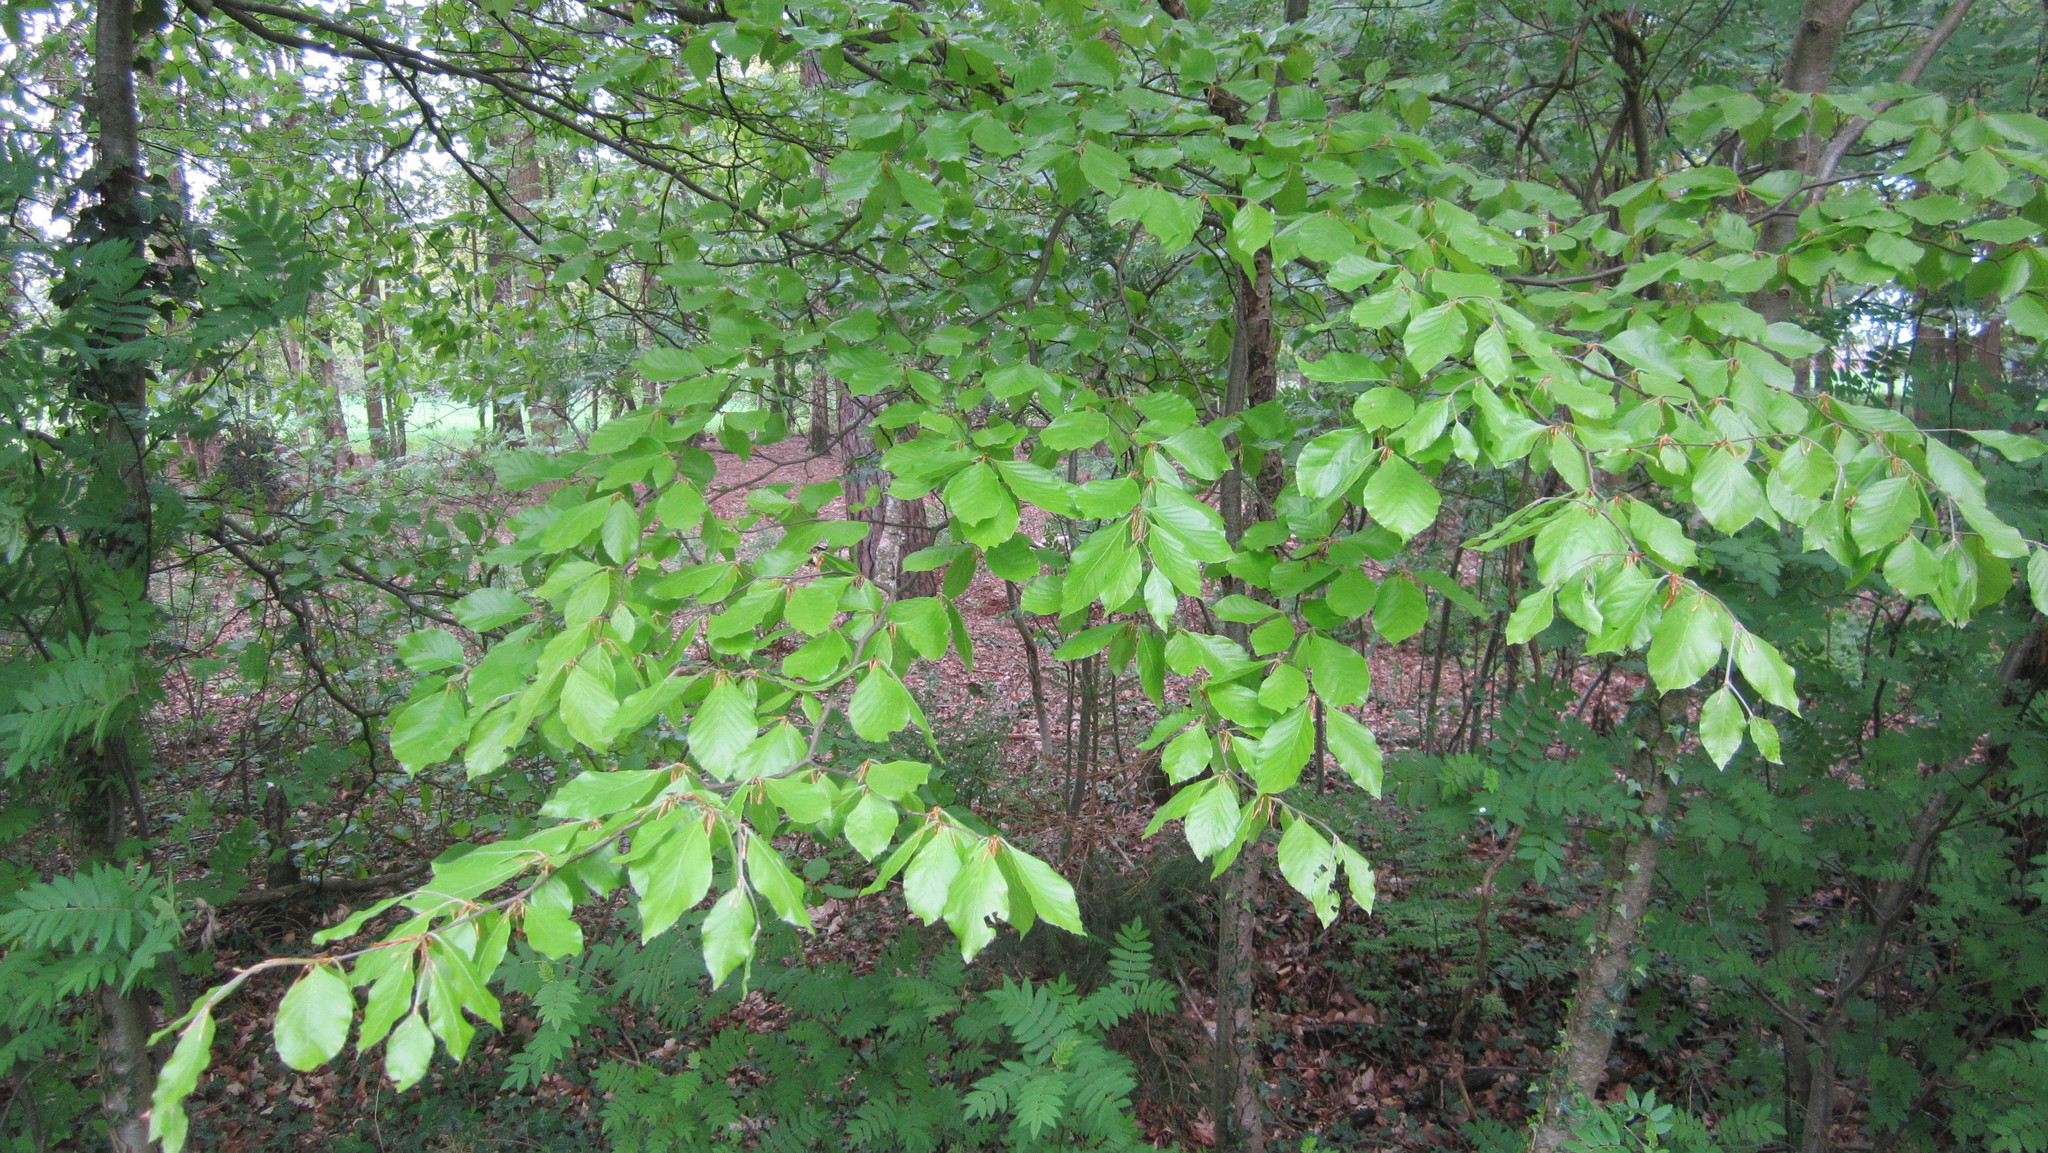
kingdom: Plantae
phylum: Tracheophyta
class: Magnoliopsida
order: Fagales
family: Fagaceae
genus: Fagus
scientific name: Fagus sylvatica
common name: Beech
